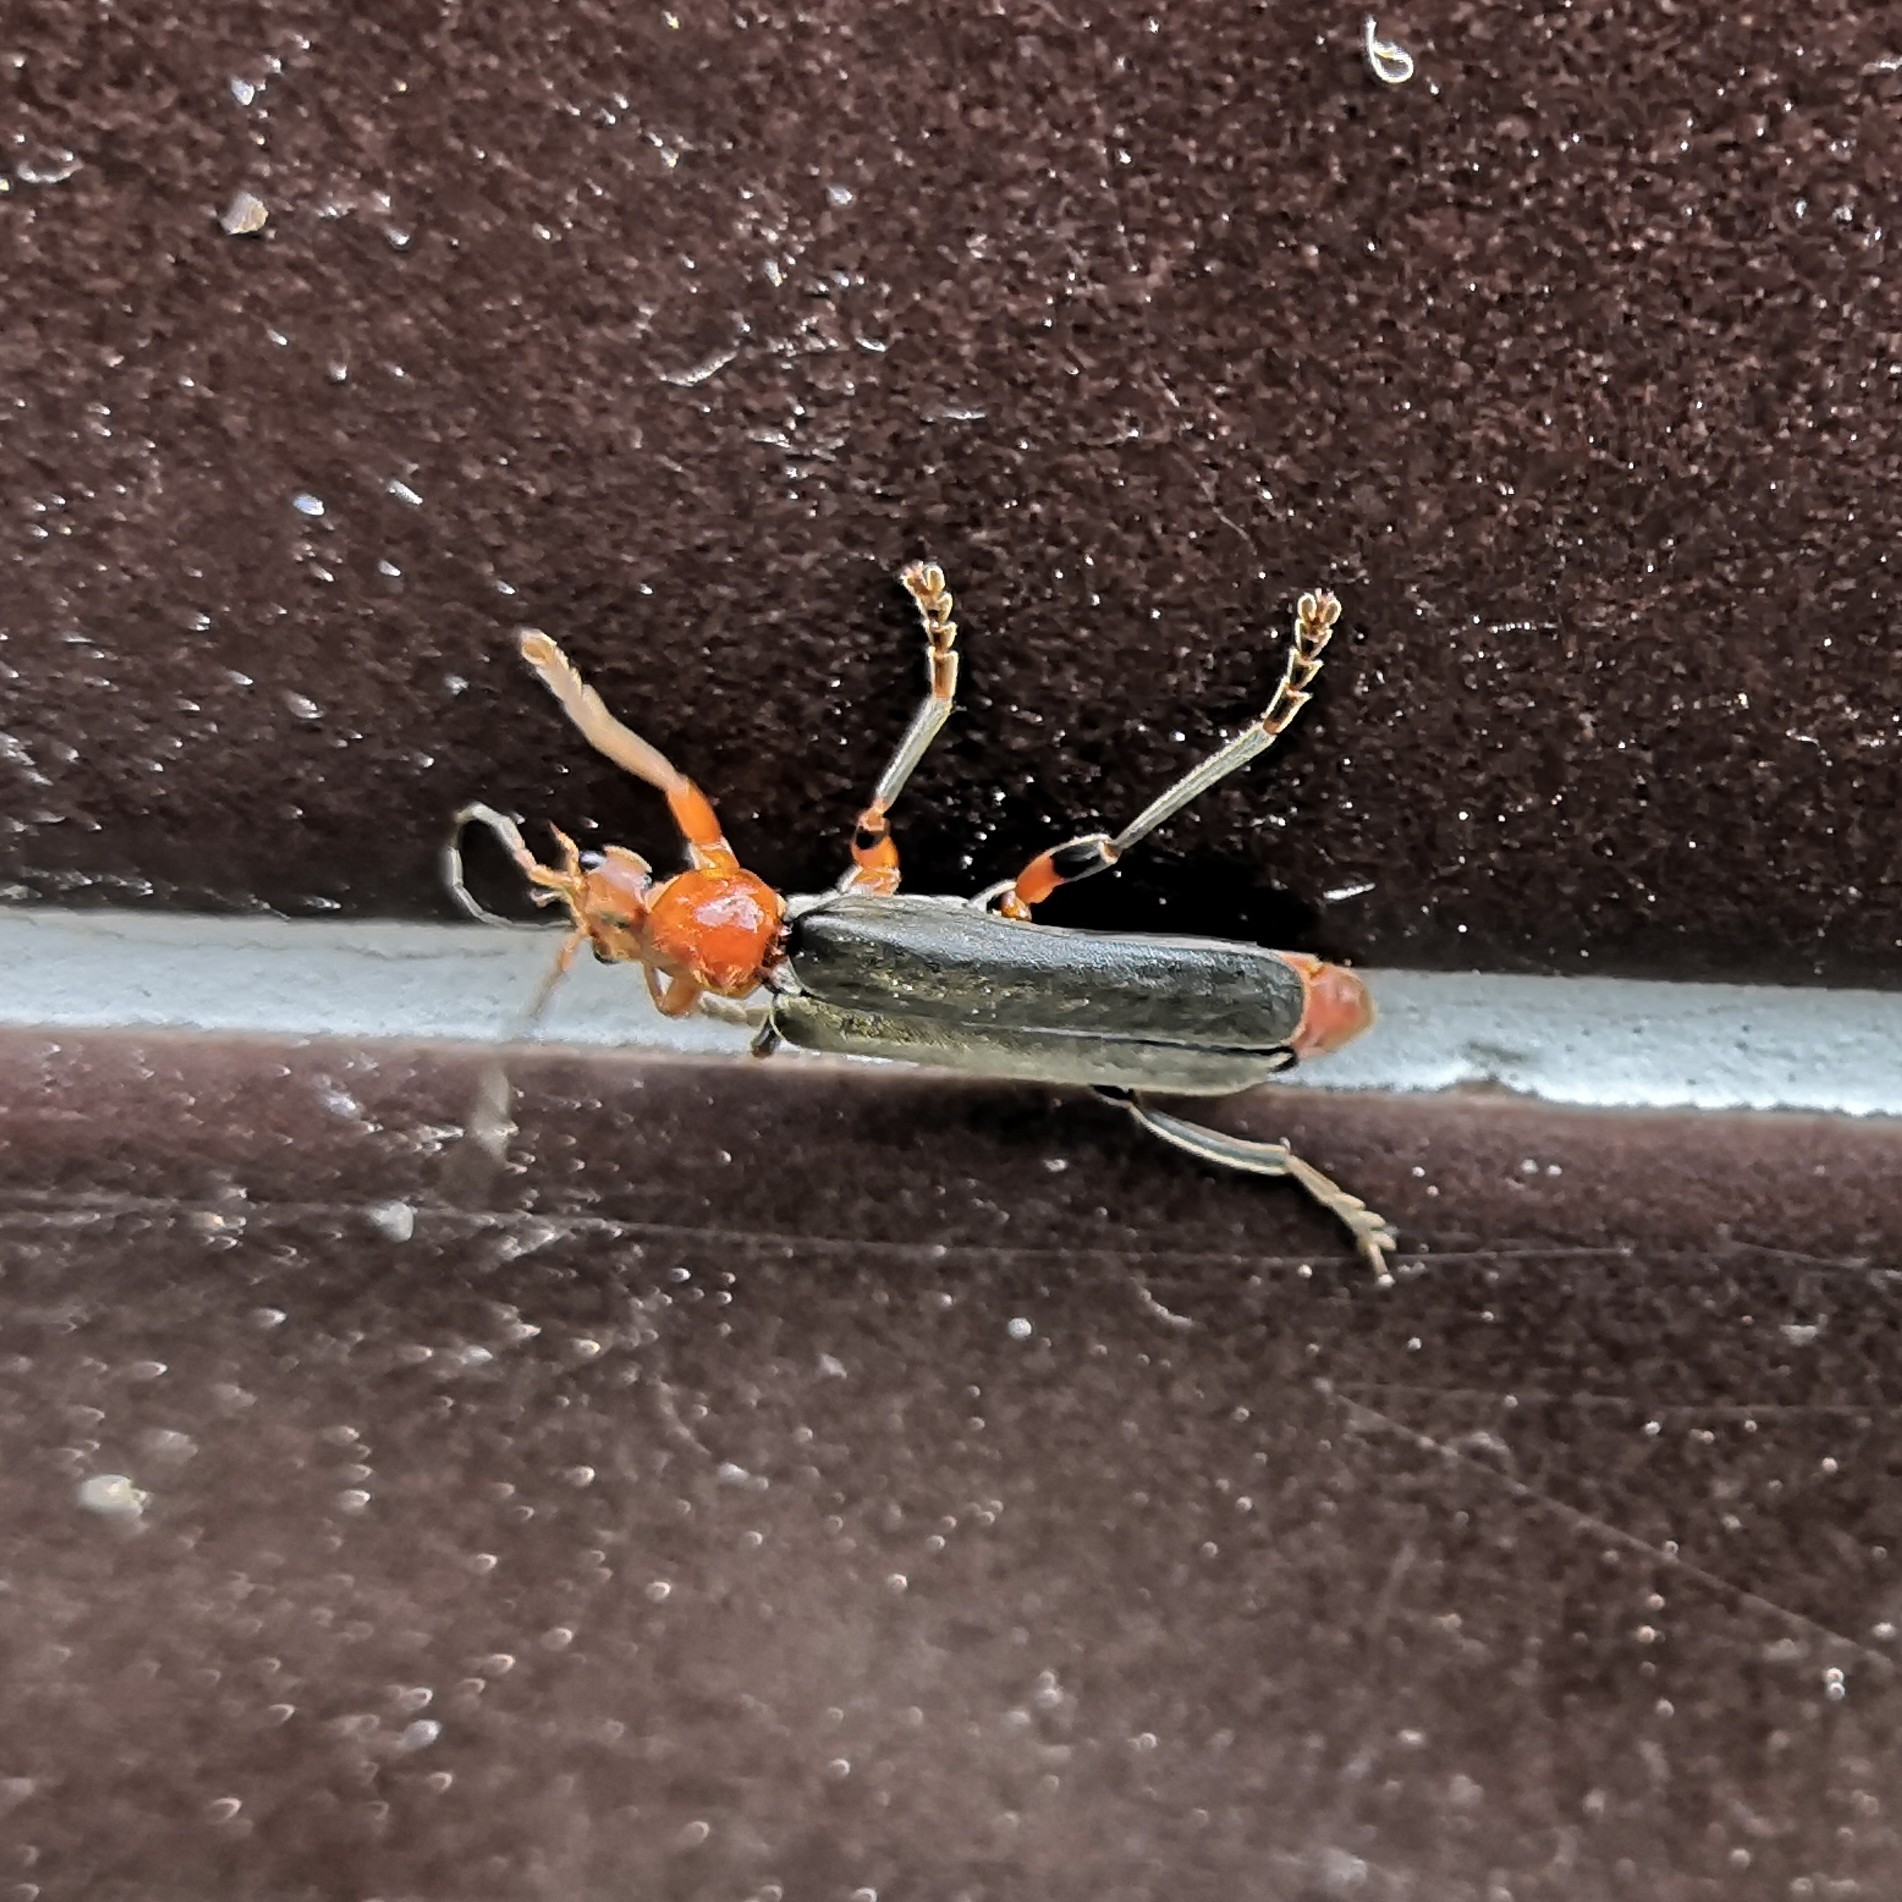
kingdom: Animalia
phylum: Arthropoda
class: Insecta
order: Coleoptera
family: Cantharidae
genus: Cantharis
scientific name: Cantharis livida
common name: Livid soldier beetle
